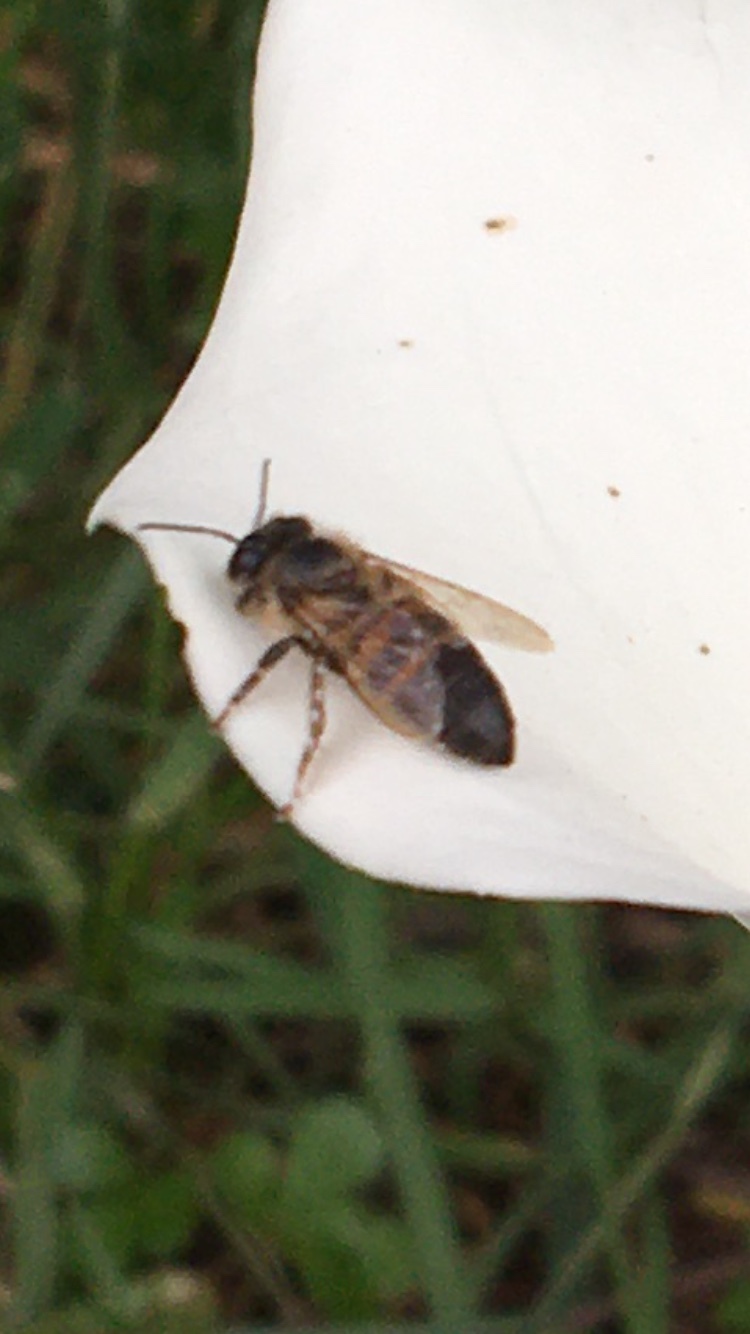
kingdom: Animalia
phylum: Arthropoda
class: Insecta
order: Hymenoptera
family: Apidae
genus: Apis
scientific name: Apis mellifera
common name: Honey bee
